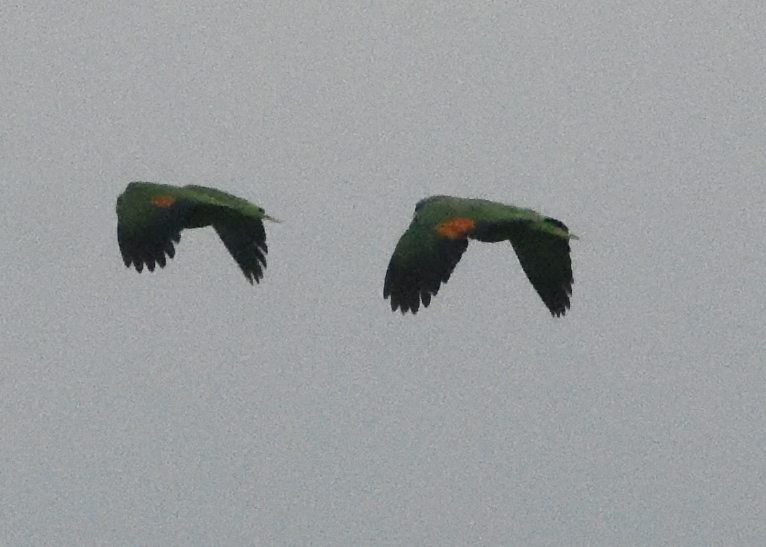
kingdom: Animalia
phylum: Chordata
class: Aves
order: Psittaciformes
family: Psittacidae
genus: Amazona
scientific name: Amazona amazonica
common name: Orange-winged amazon
